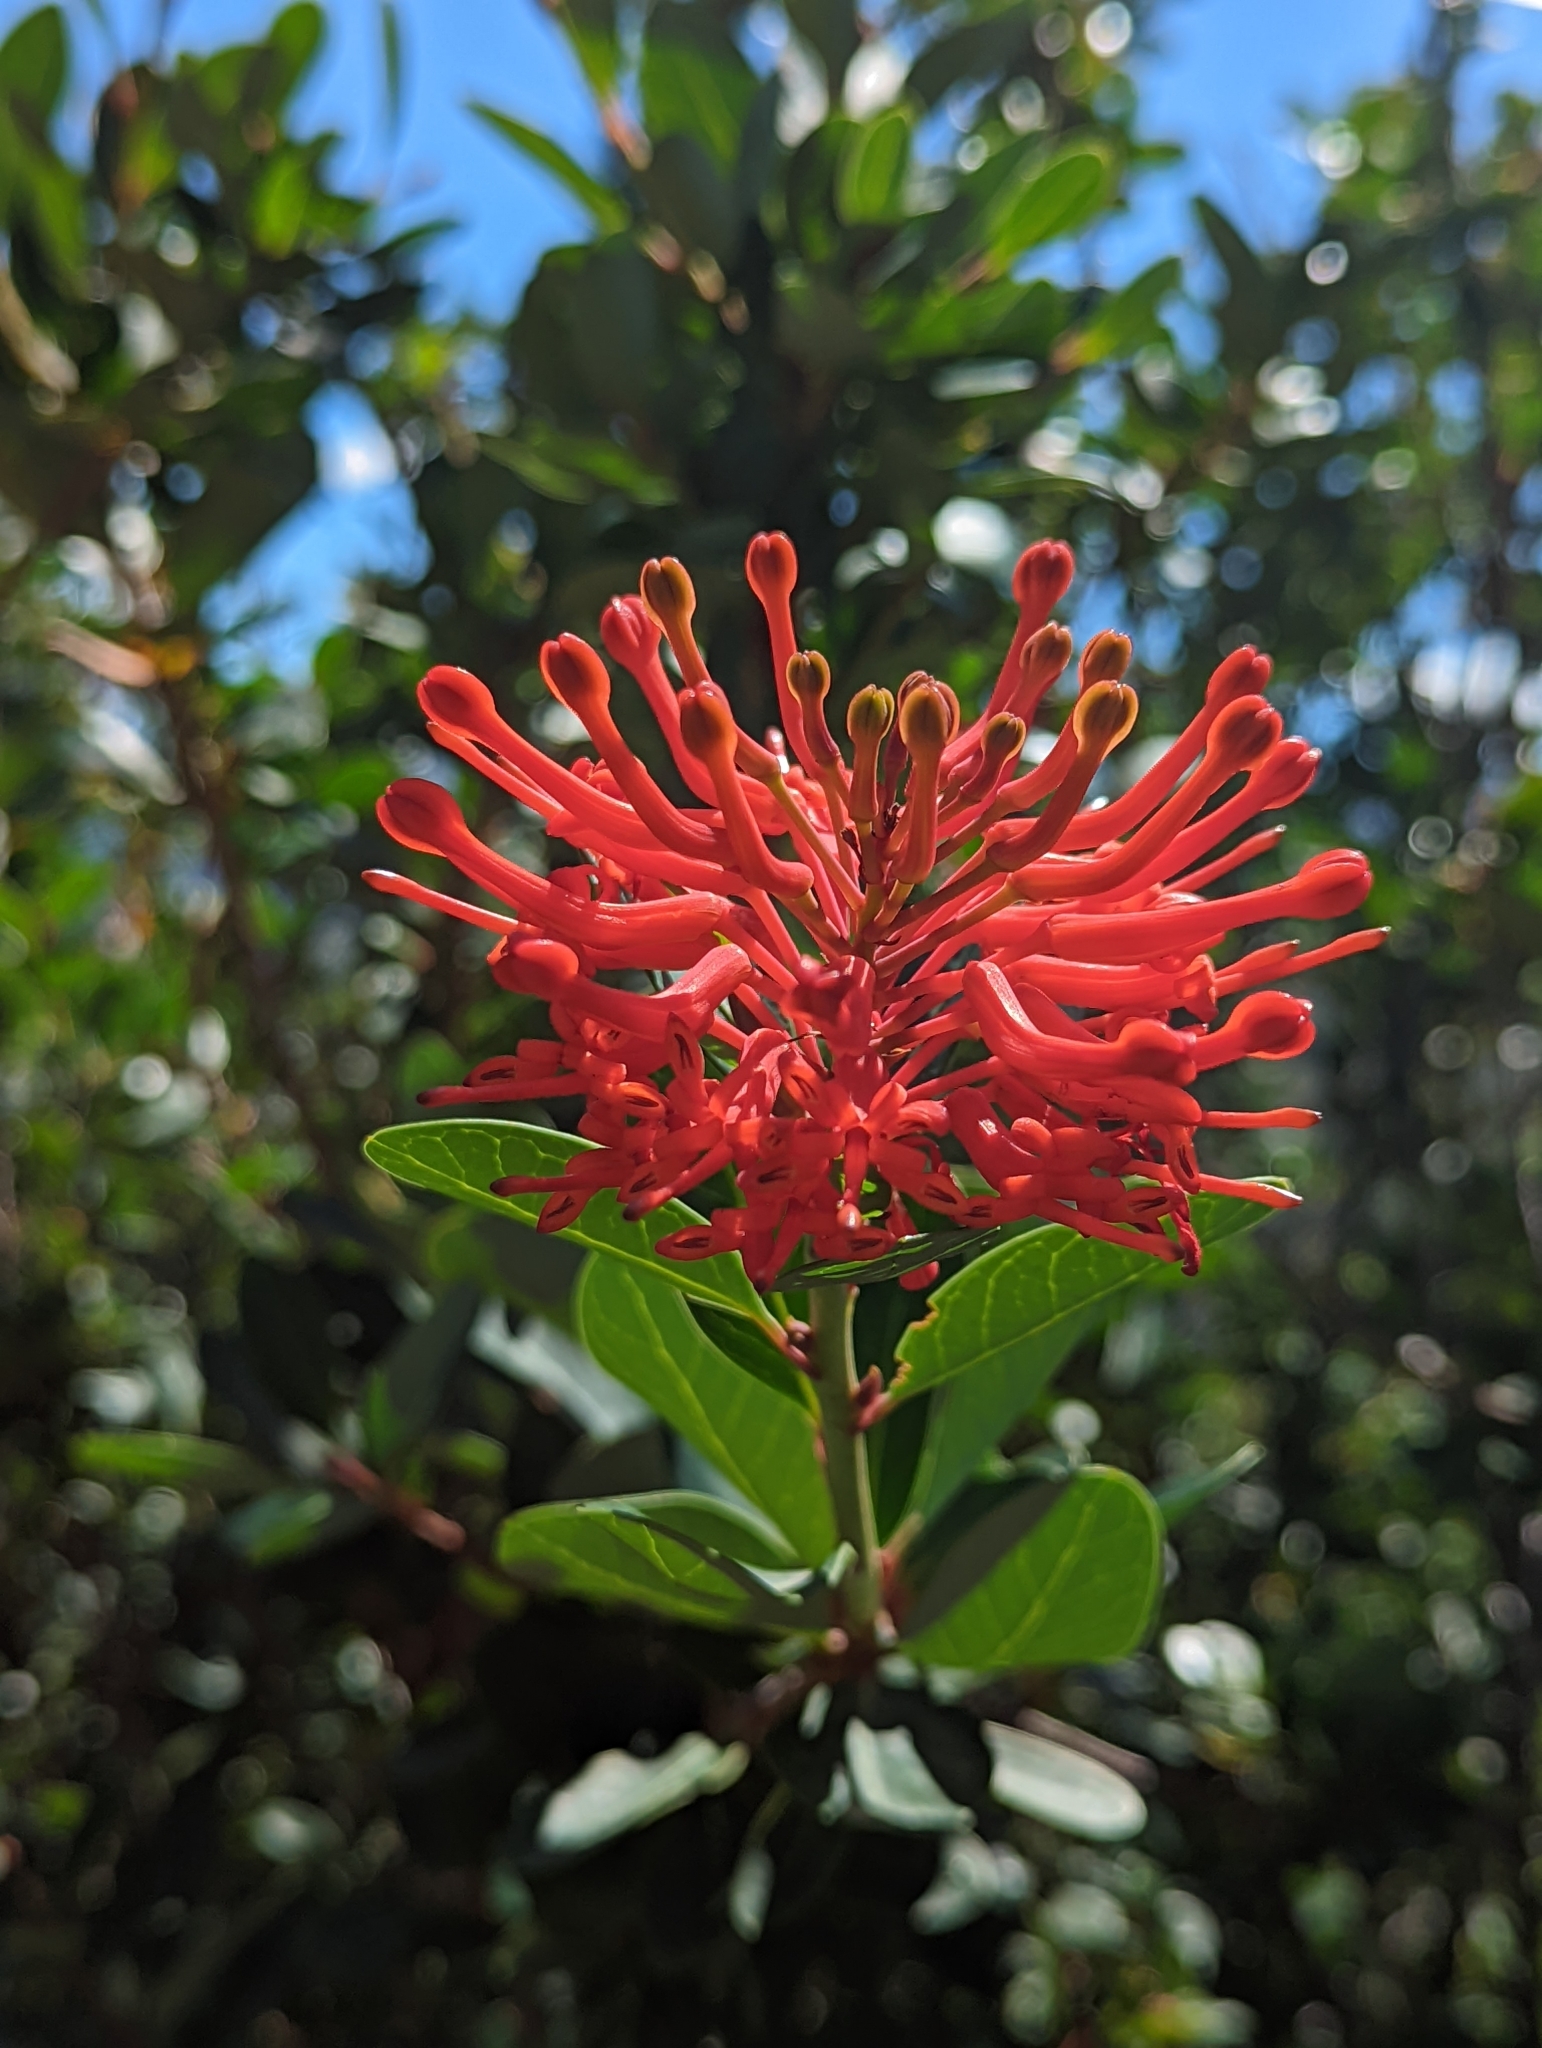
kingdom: Plantae
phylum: Tracheophyta
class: Magnoliopsida
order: Proteales
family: Proteaceae
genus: Embothrium
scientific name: Embothrium coccineum
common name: Chilean firebush
